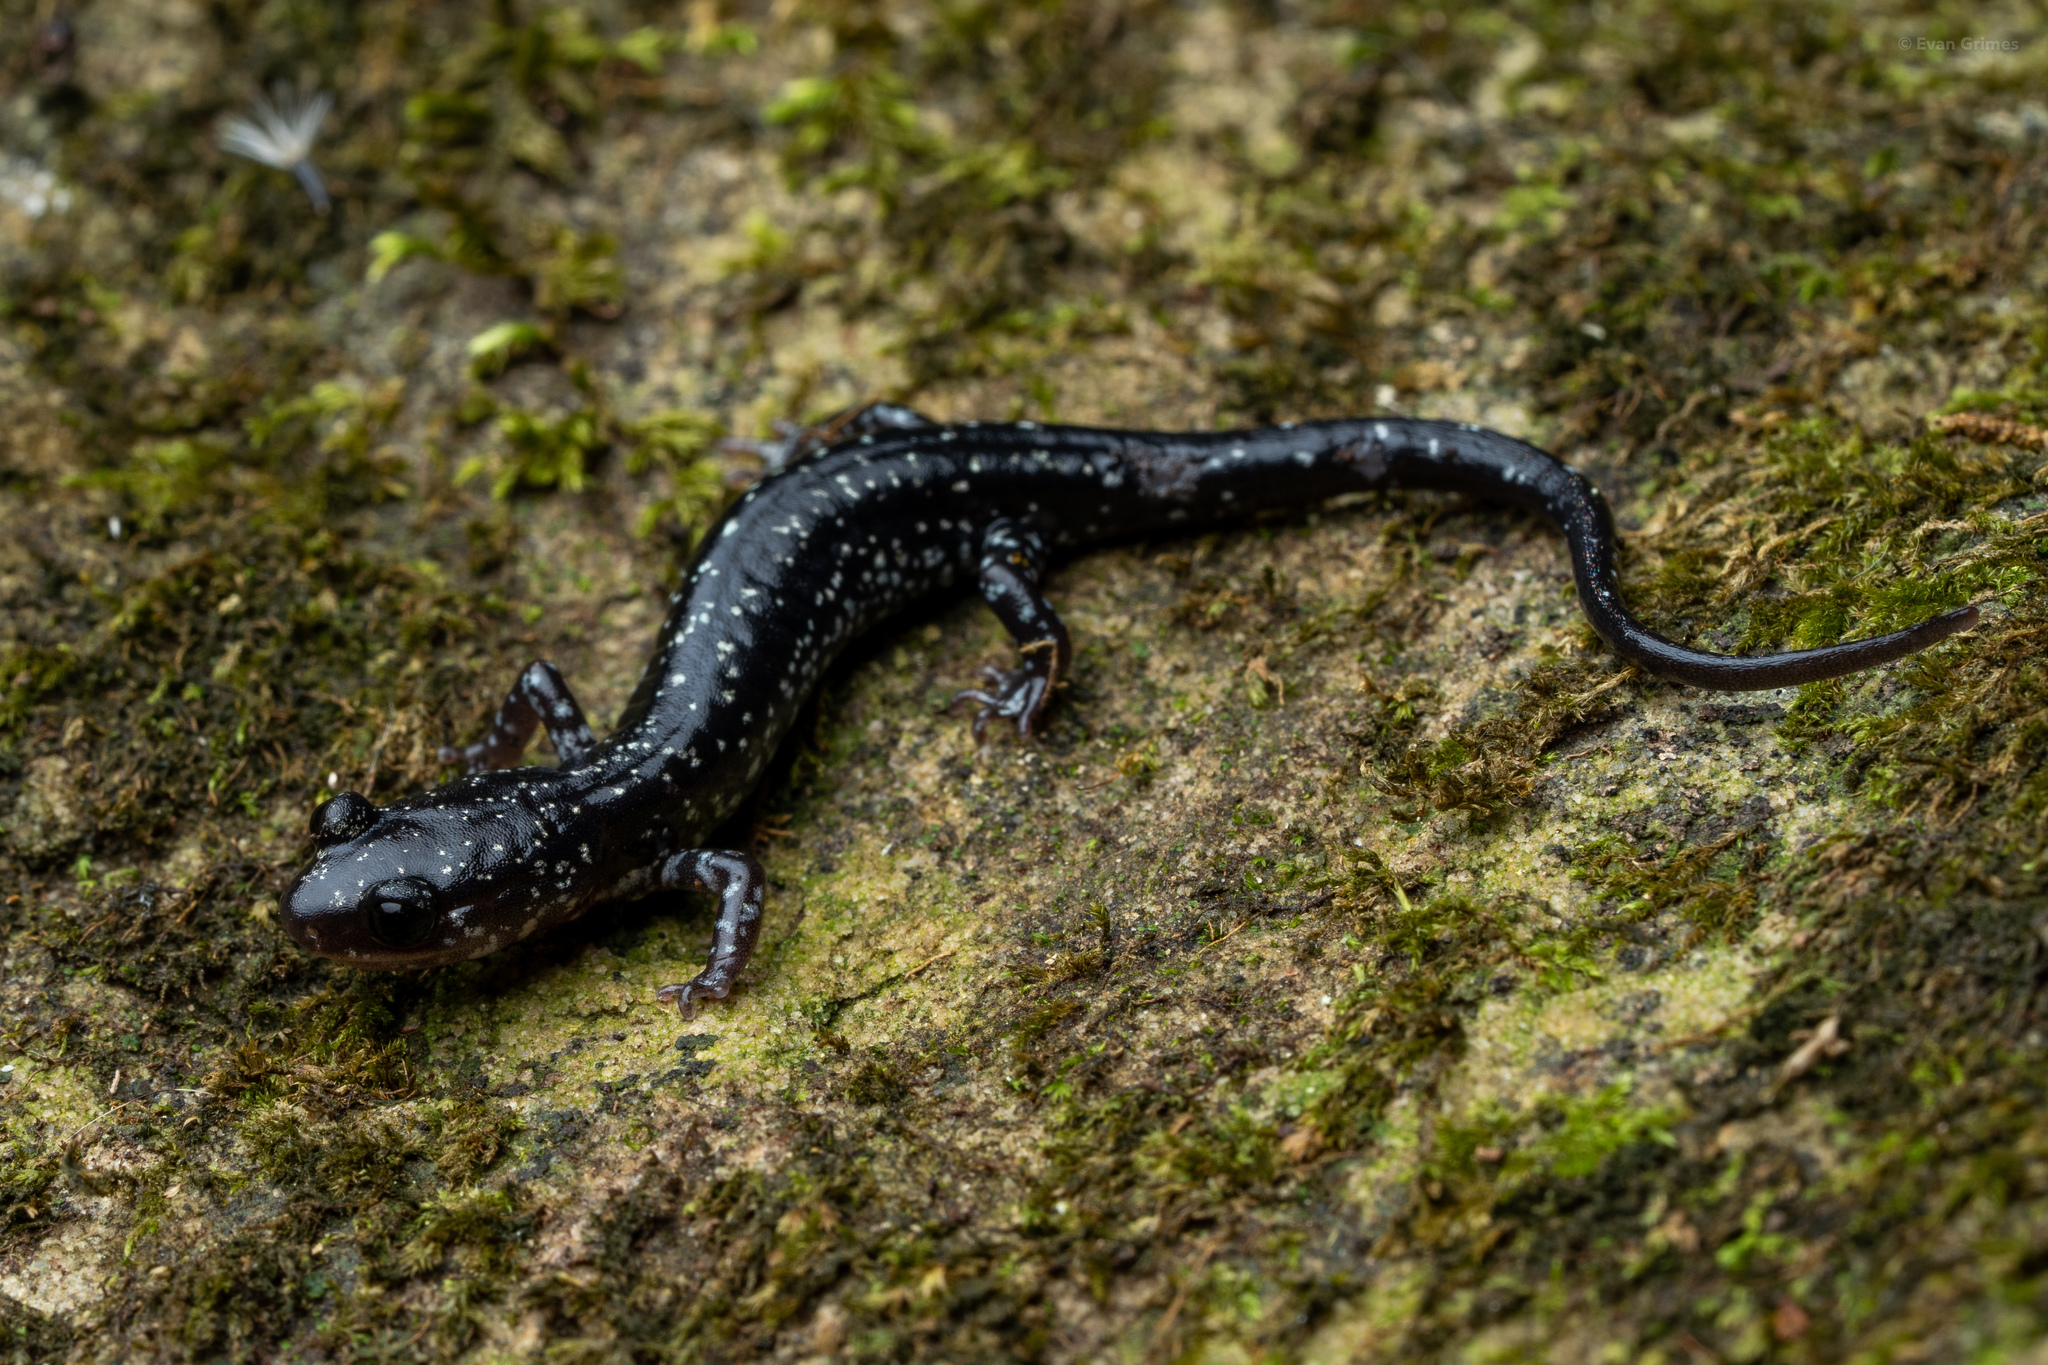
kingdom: Animalia
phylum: Chordata
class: Amphibia
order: Caudata
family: Plethodontidae
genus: Plethodon
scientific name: Plethodon ouachitae
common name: Rich mountain salamander
